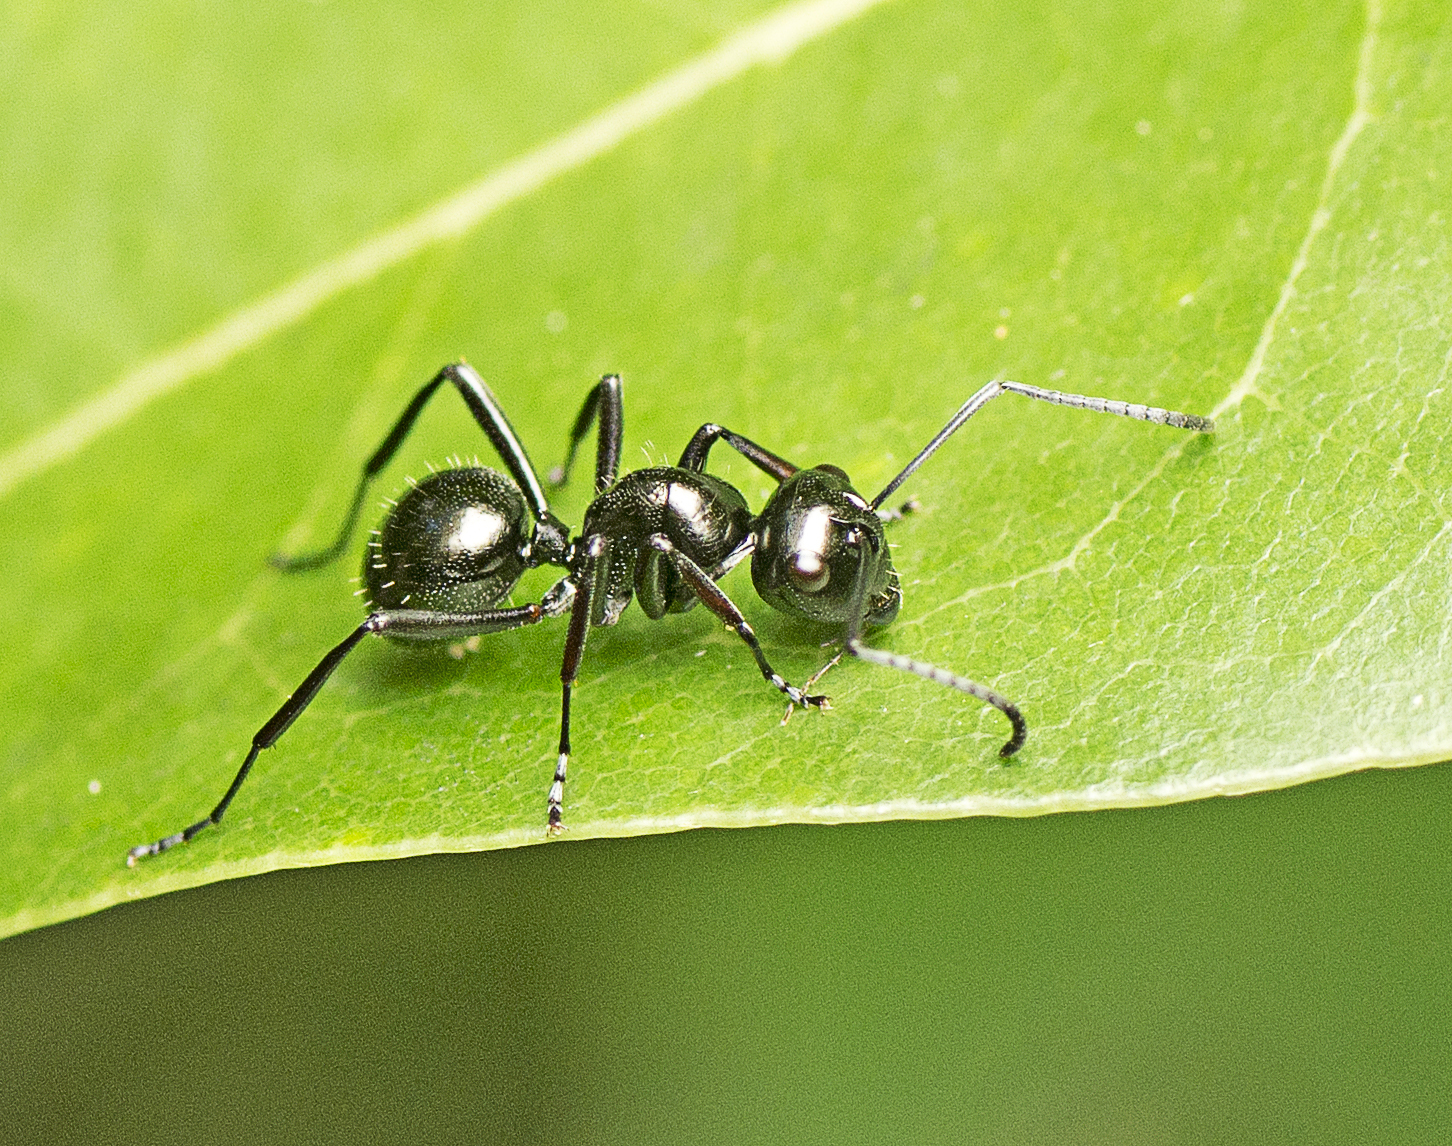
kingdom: Animalia
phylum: Arthropoda
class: Insecta
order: Hymenoptera
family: Formicidae
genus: Polyrhachis
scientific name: Polyrhachis pilosa
